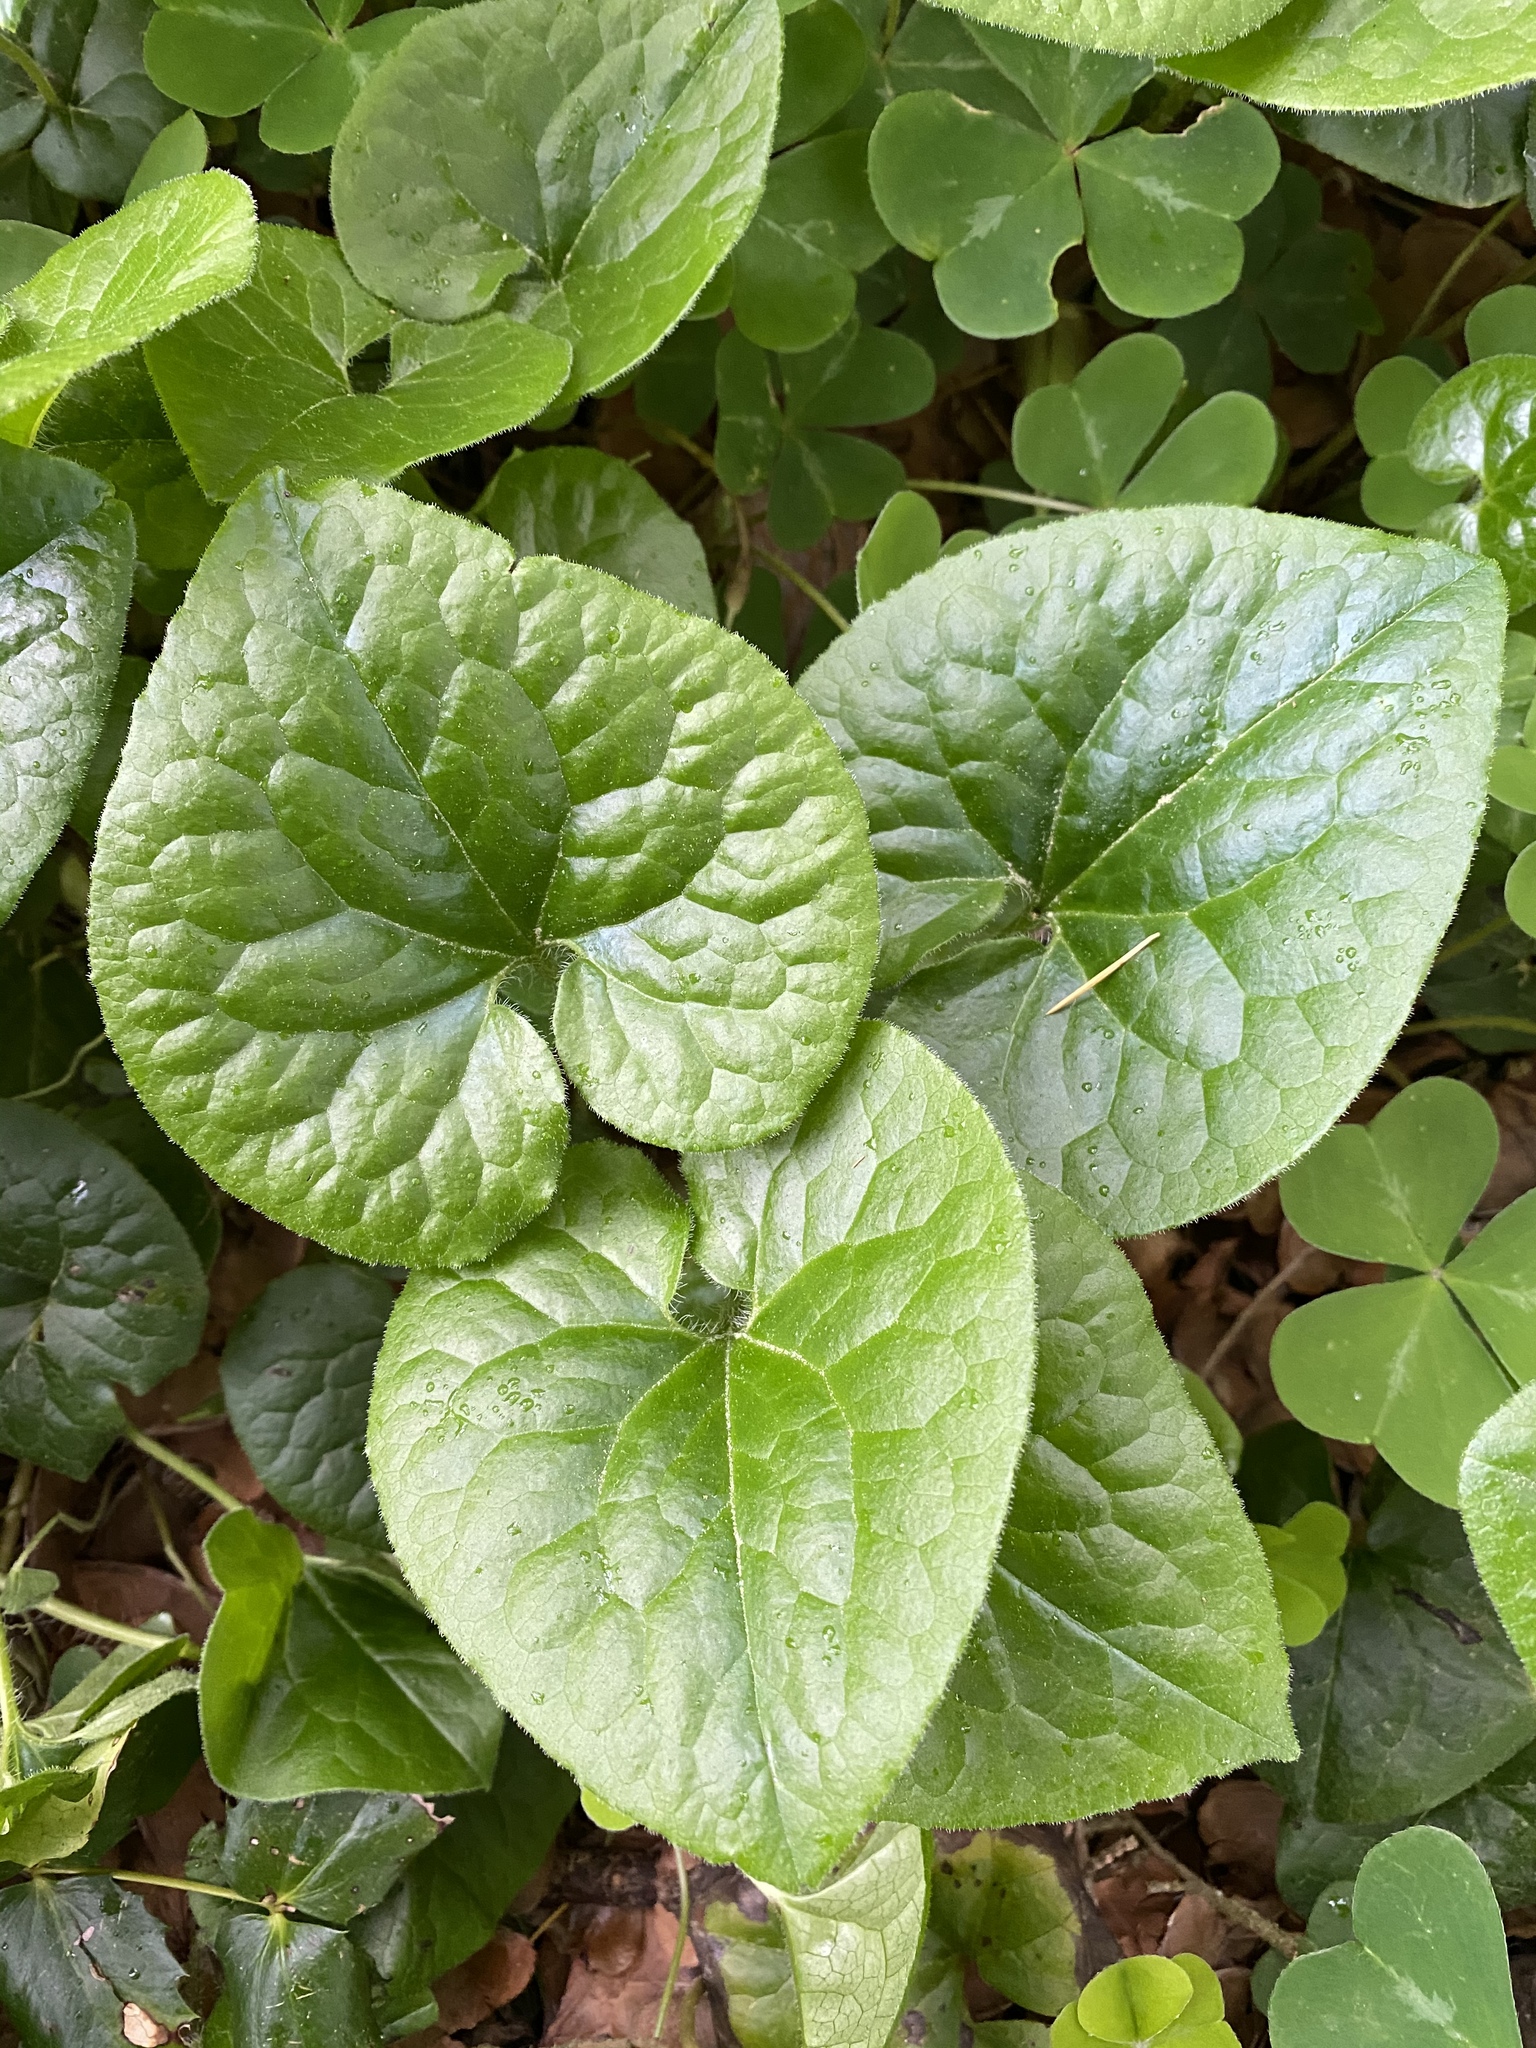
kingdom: Plantae
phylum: Tracheophyta
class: Magnoliopsida
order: Piperales
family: Aristolochiaceae
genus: Asarum
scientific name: Asarum caudatum
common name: Wild ginger
